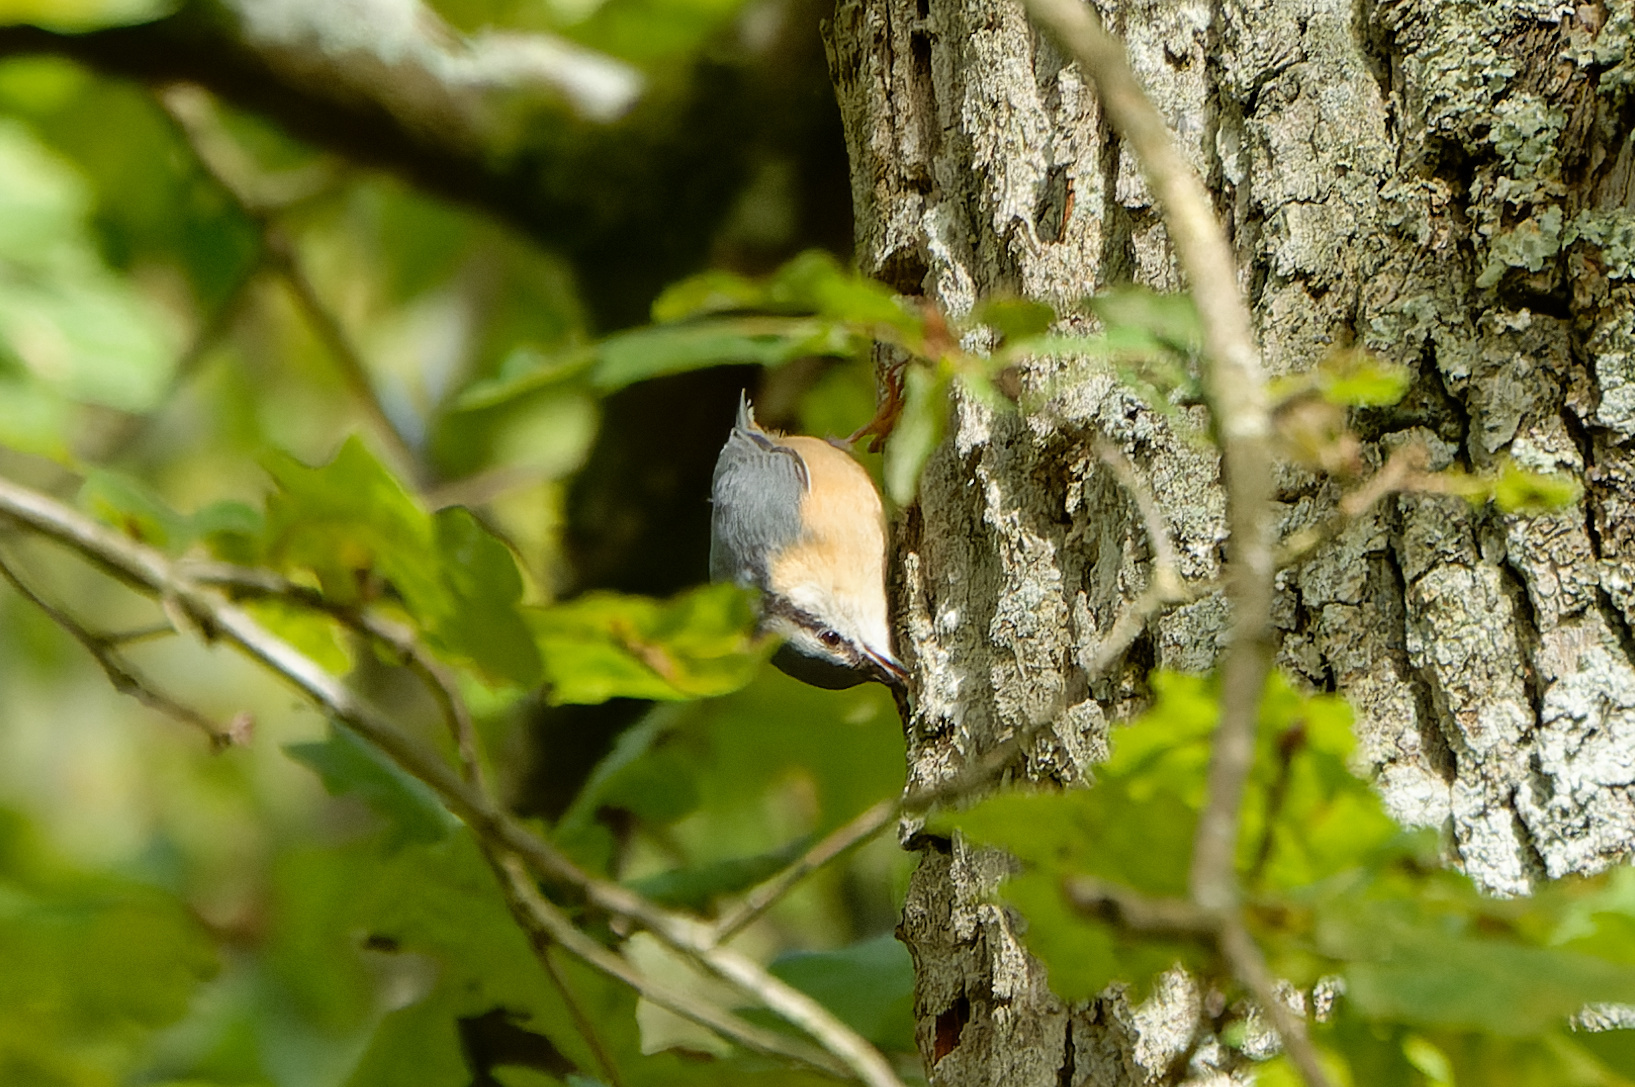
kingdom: Animalia
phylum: Chordata
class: Aves
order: Passeriformes
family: Sittidae
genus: Sitta
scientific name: Sitta europaea
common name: Eurasian nuthatch
